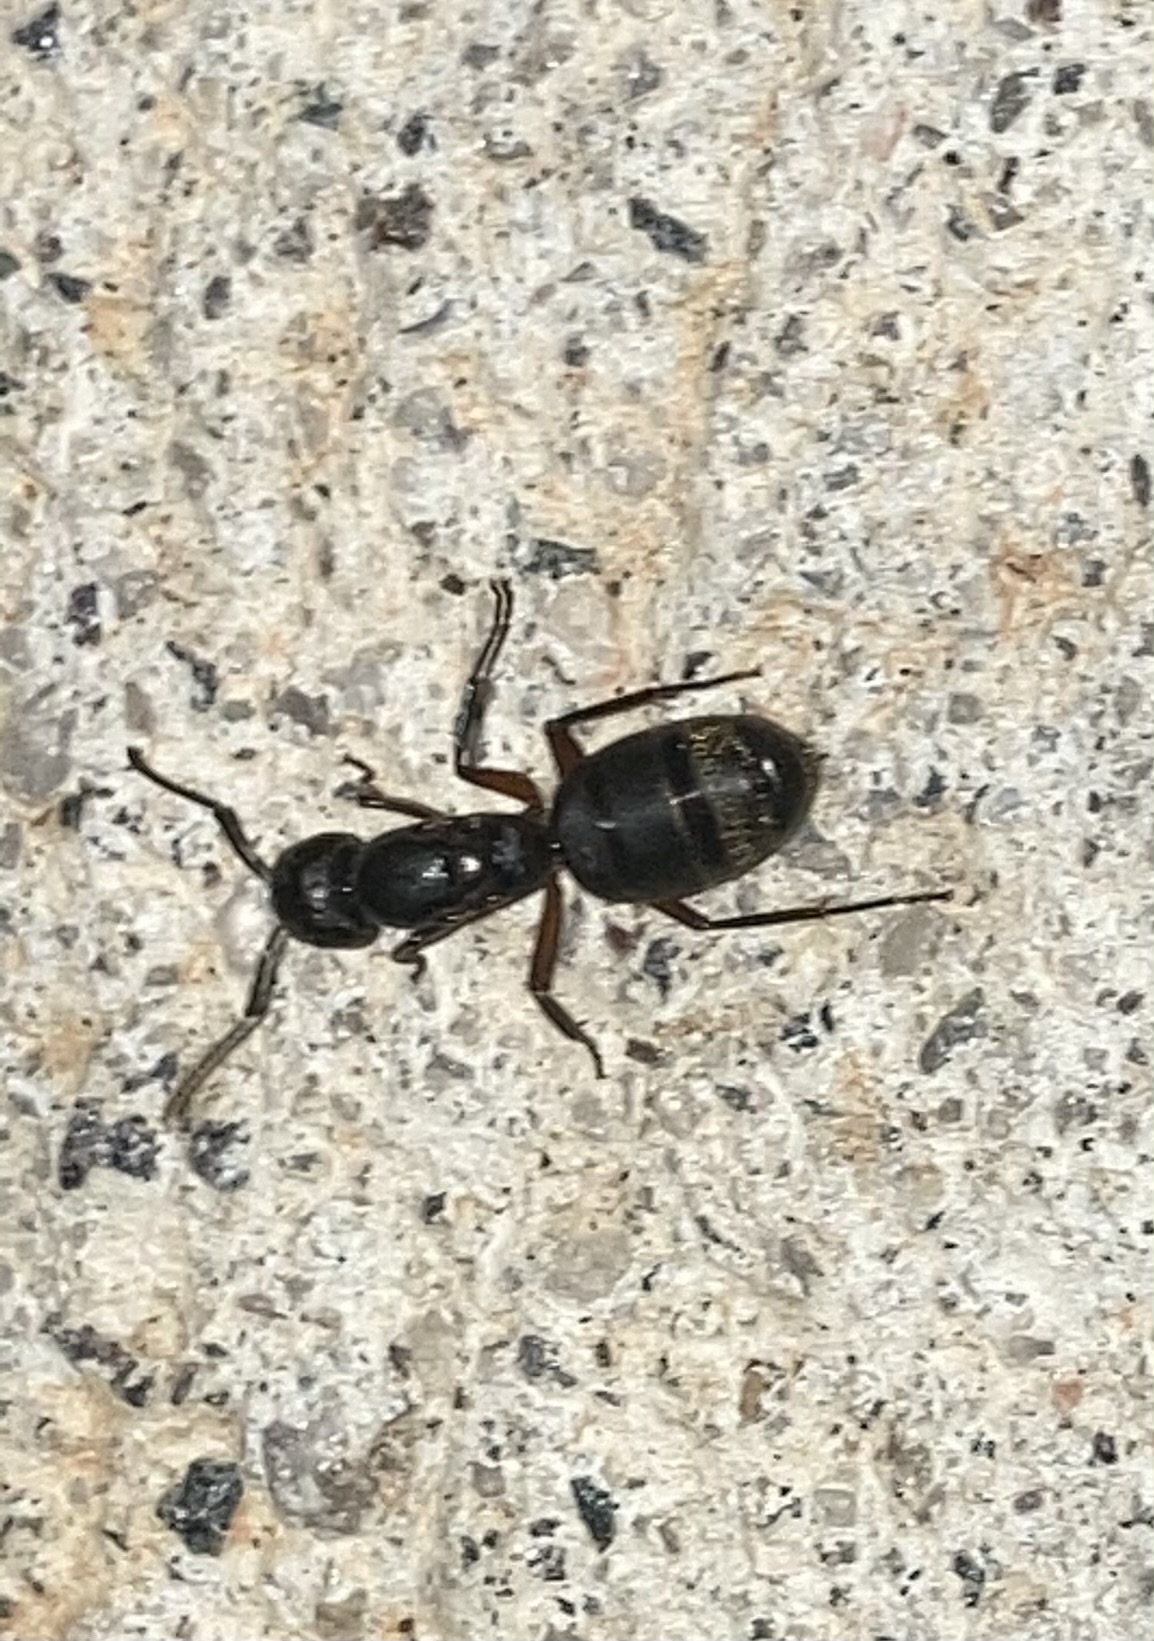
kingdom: Animalia
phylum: Arthropoda
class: Insecta
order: Hymenoptera
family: Formicidae
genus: Camponotus
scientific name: Camponotus chromaiodes
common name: Red carpenter ant
